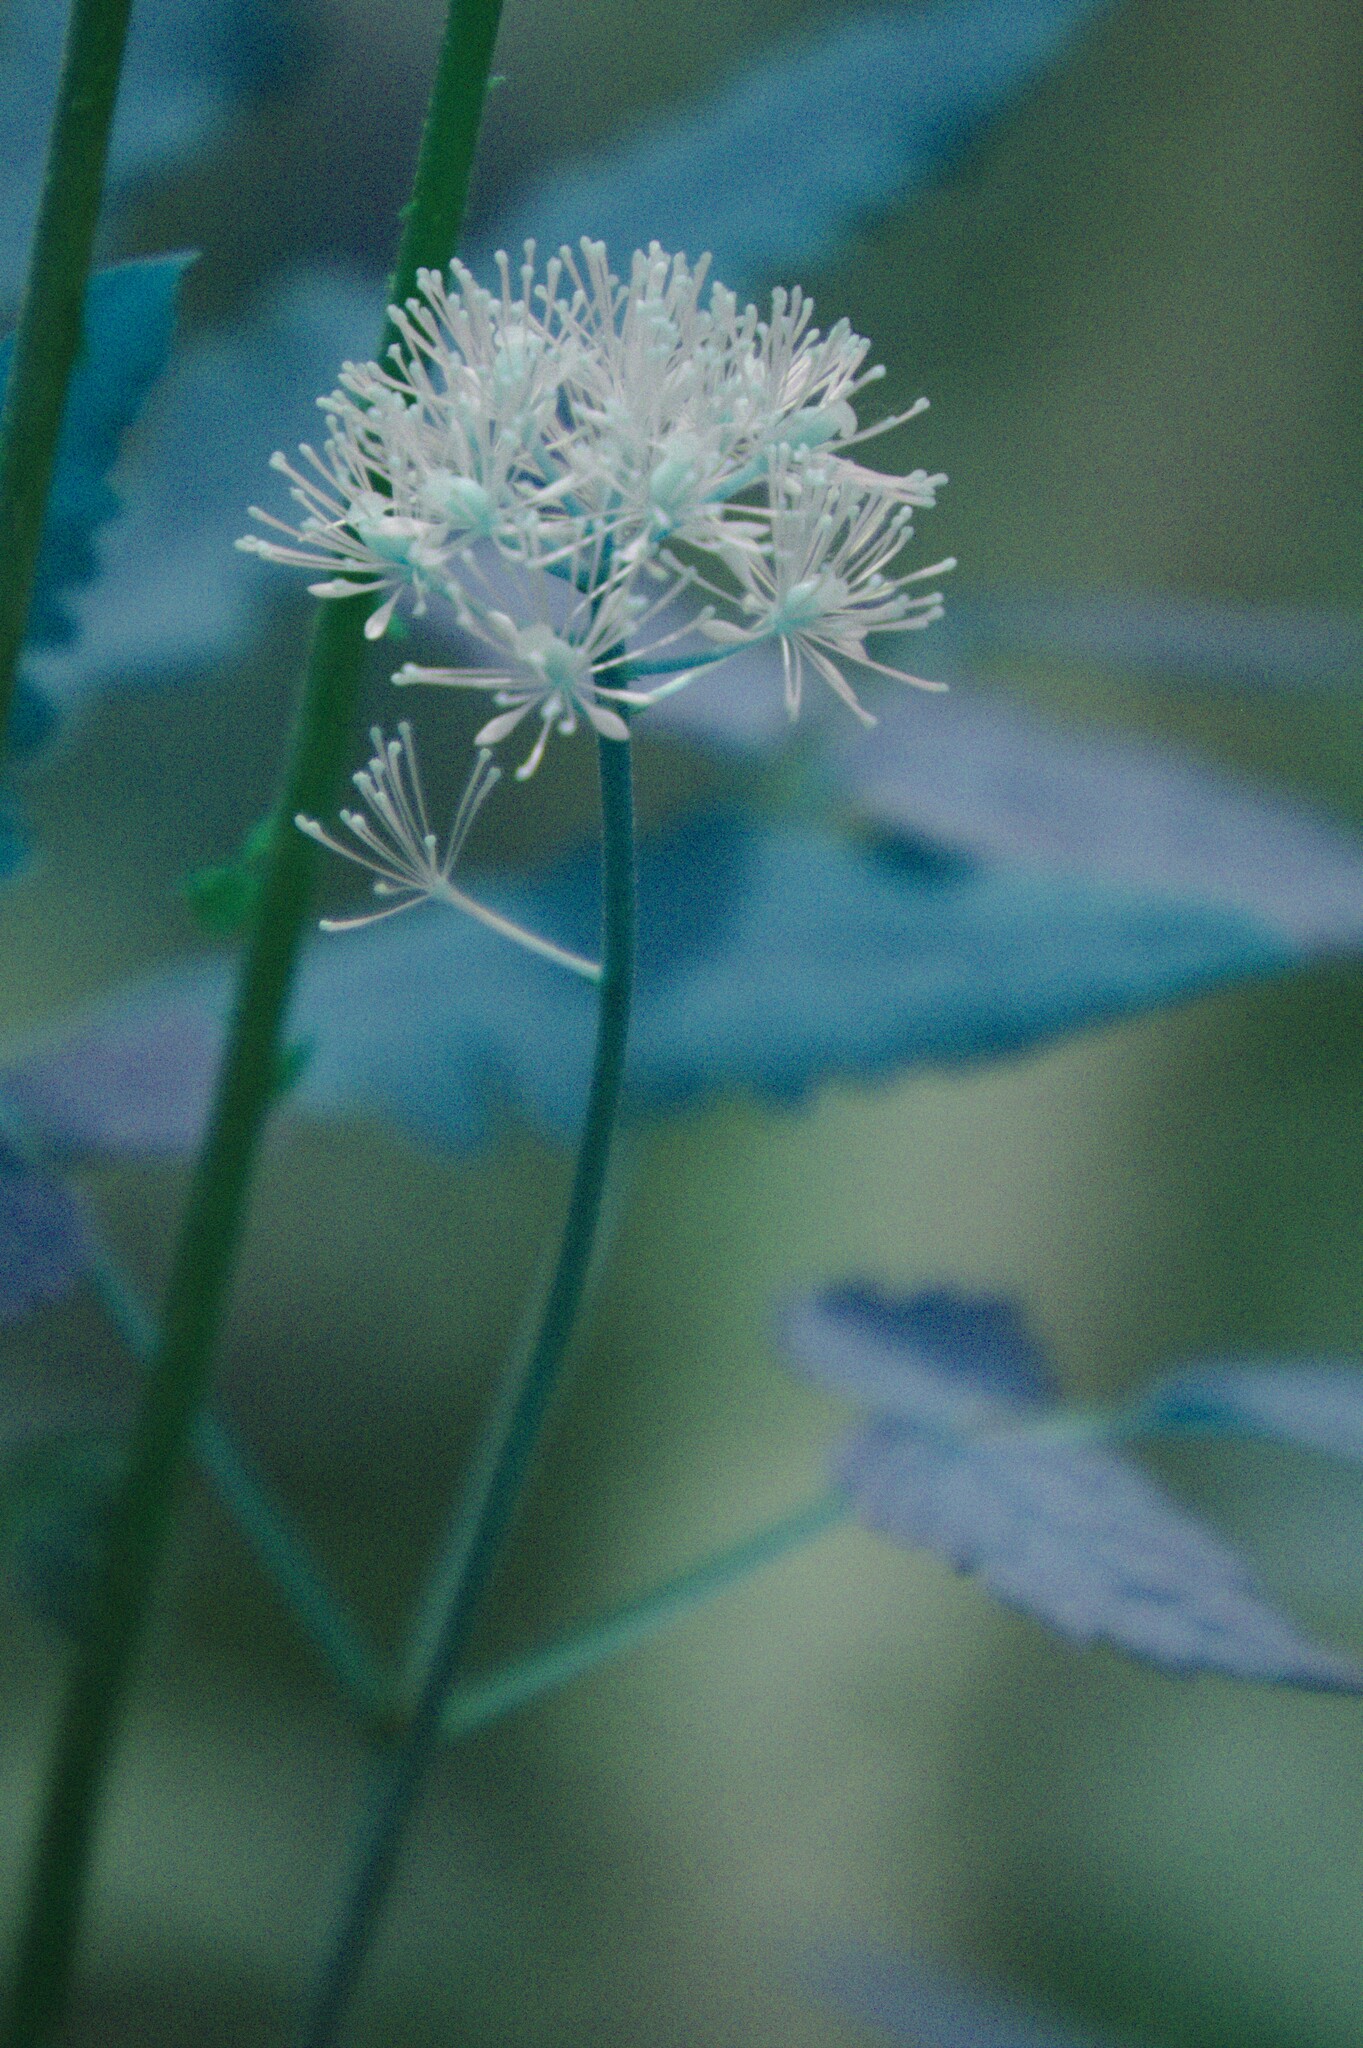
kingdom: Plantae
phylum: Tracheophyta
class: Magnoliopsida
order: Ranunculales
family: Ranunculaceae
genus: Actaea
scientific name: Actaea rubra
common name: Red baneberry
